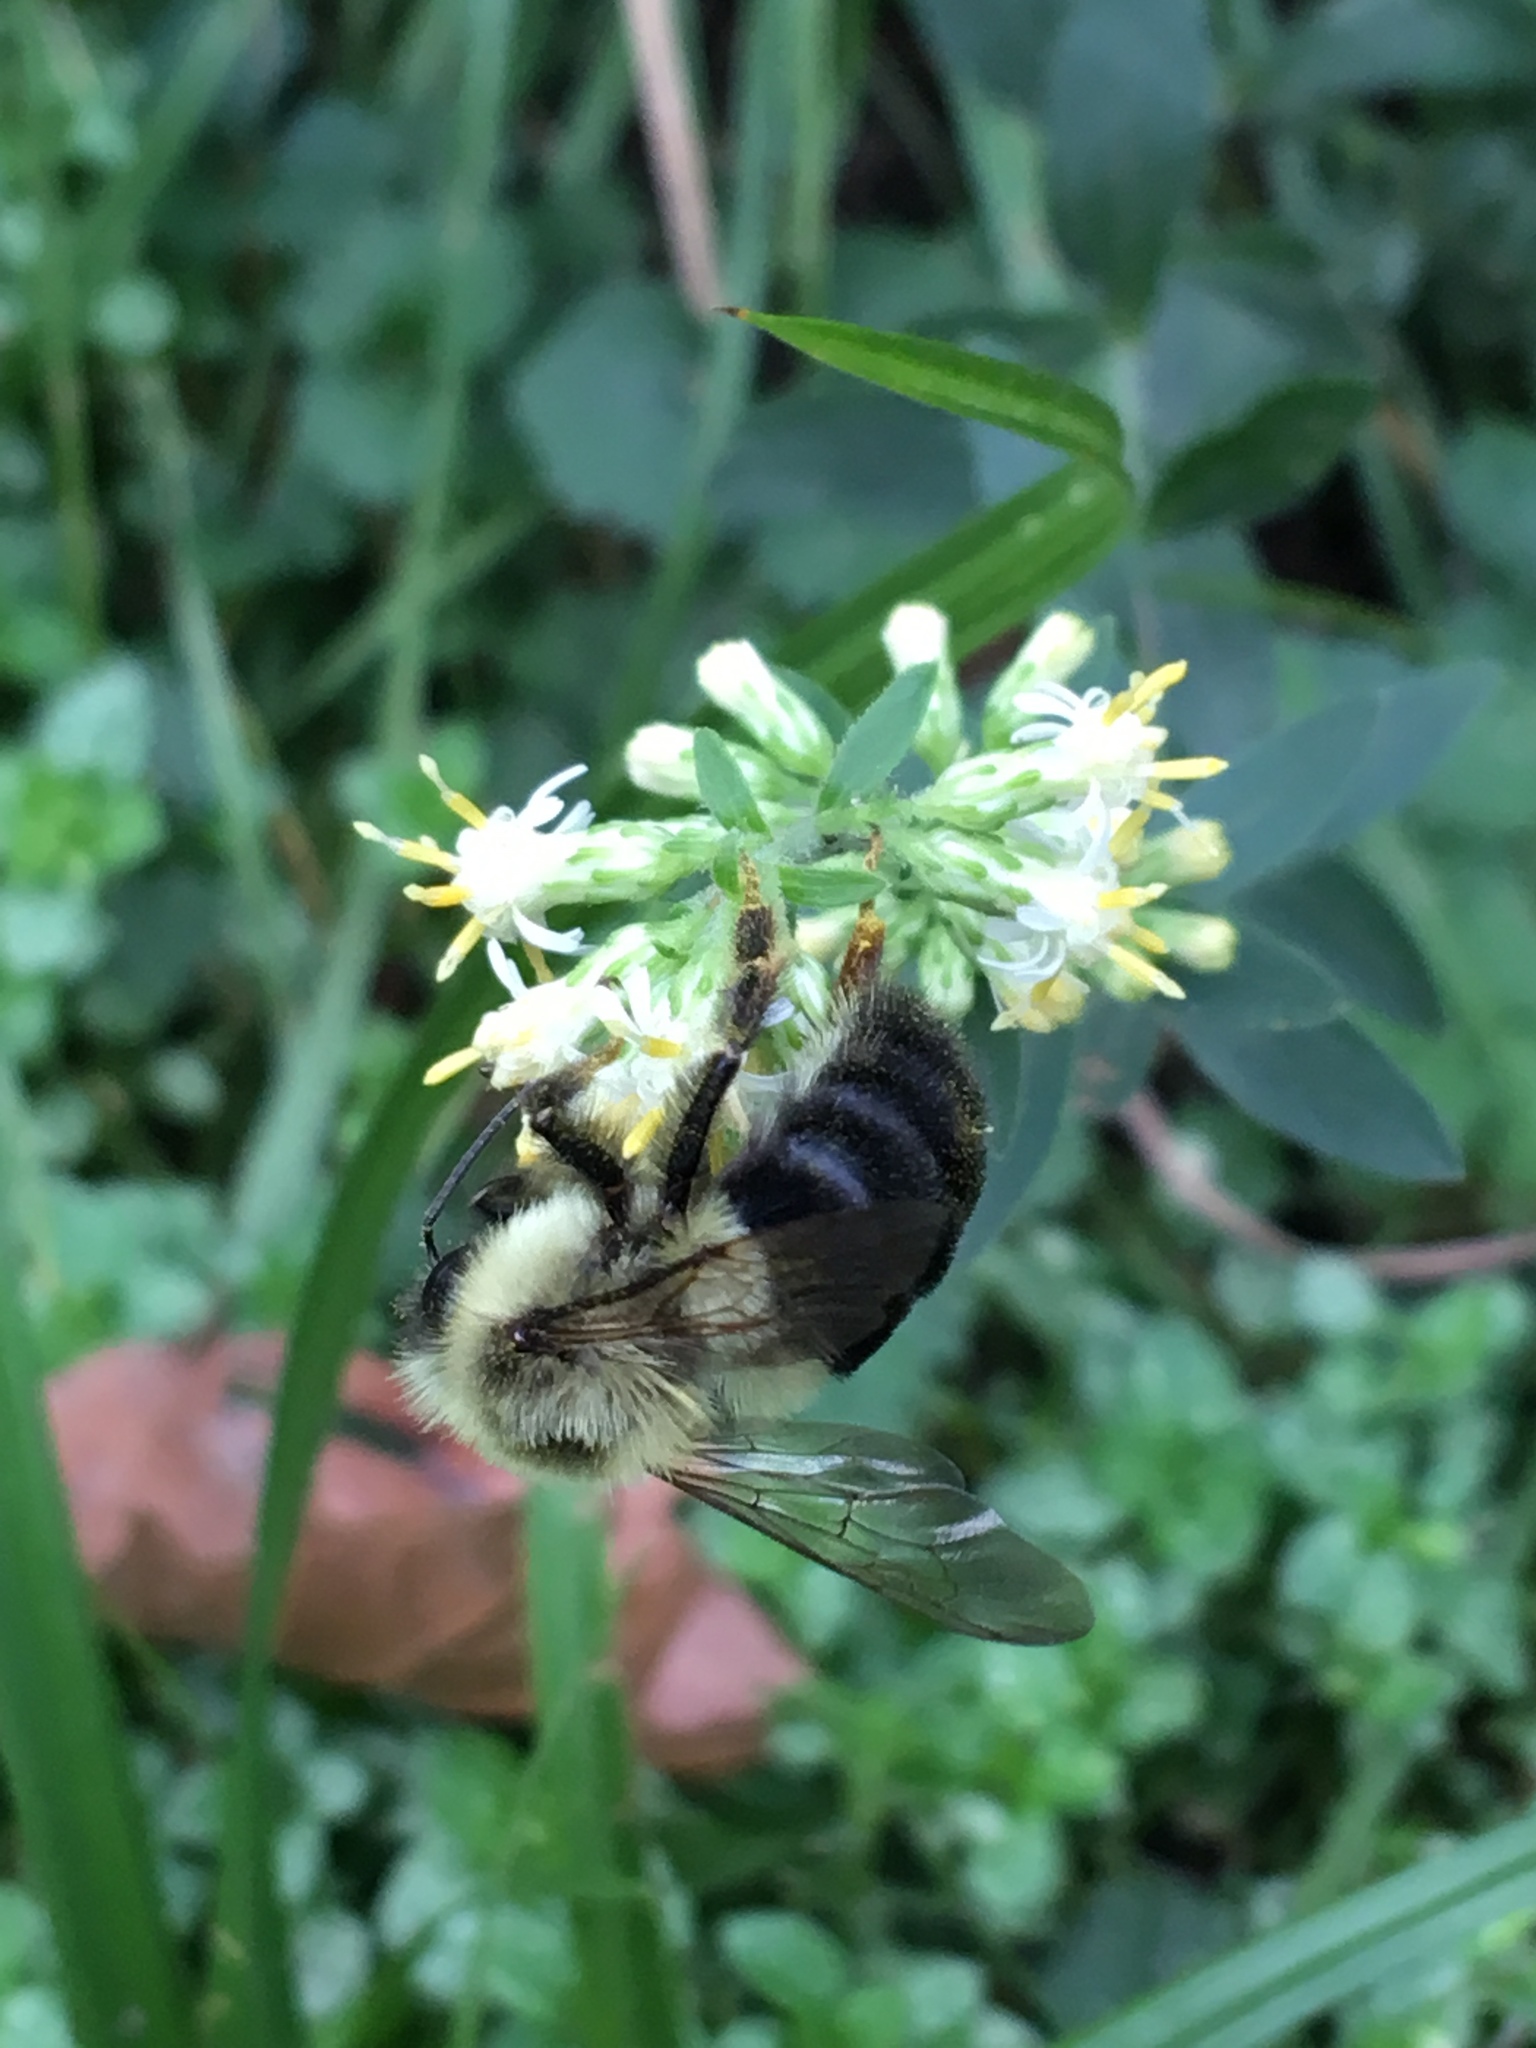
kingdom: Animalia
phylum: Arthropoda
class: Insecta
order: Hymenoptera
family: Apidae
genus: Bombus
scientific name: Bombus impatiens
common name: Common eastern bumble bee
